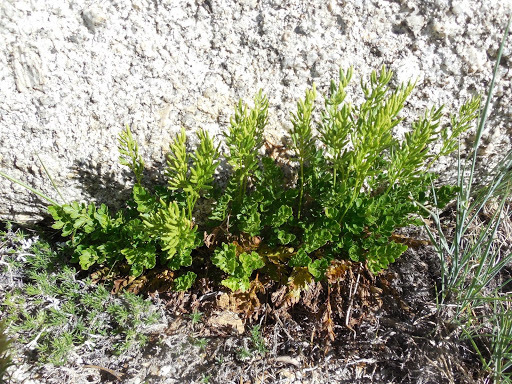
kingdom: Plantae
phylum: Tracheophyta
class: Polypodiopsida
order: Polypodiales
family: Pteridaceae
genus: Aspidotis
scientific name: Aspidotis densa
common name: Indian's dream
